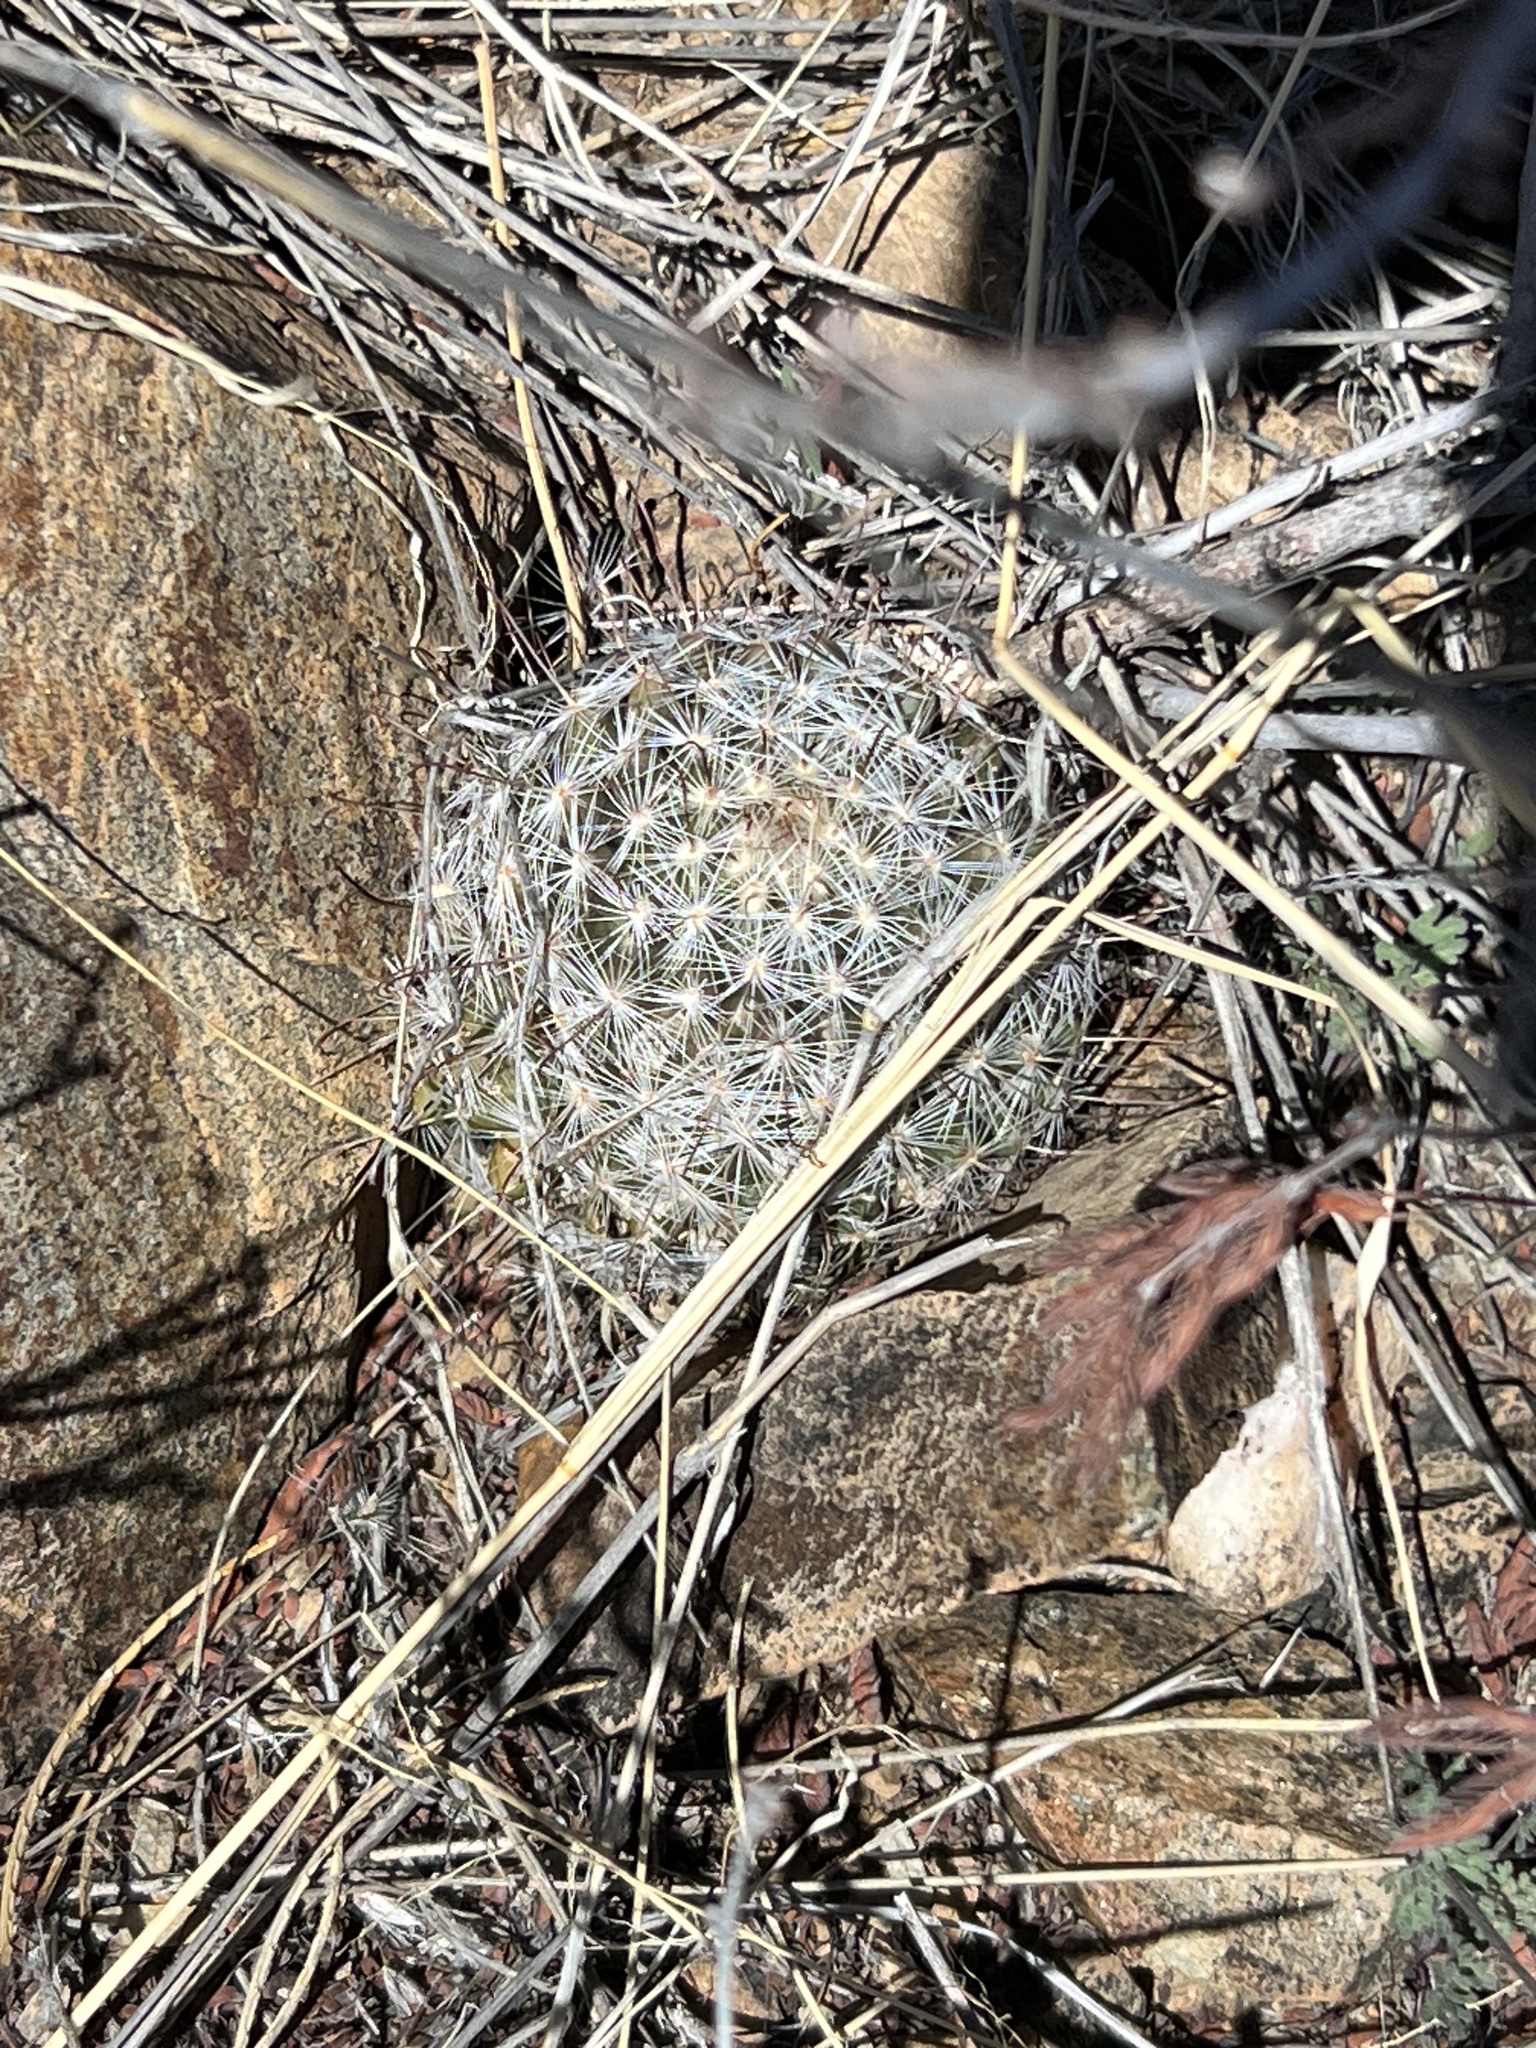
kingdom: Plantae
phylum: Tracheophyta
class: Magnoliopsida
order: Caryophyllales
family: Cactaceae
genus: Cochemiea
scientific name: Cochemiea grahamii
